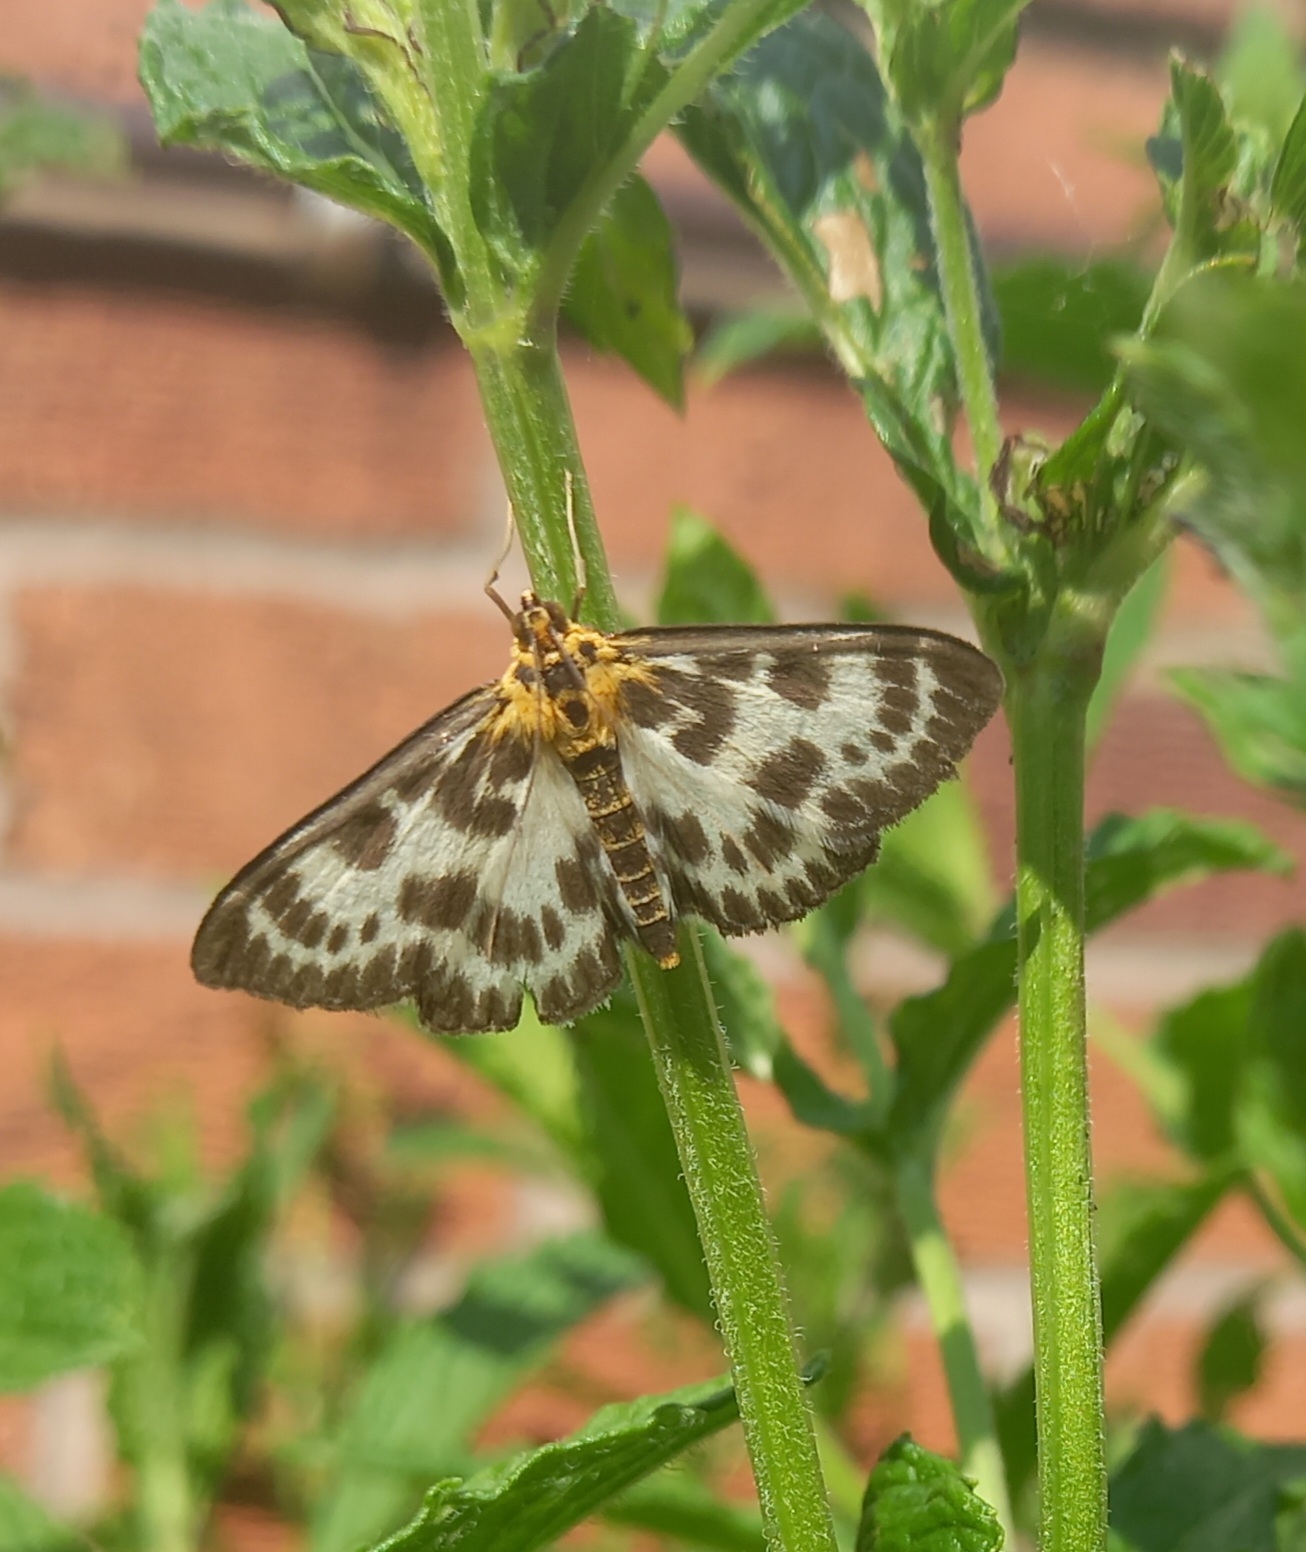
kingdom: Animalia
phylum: Arthropoda
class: Insecta
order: Lepidoptera
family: Crambidae
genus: Anania
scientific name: Anania hortulata
